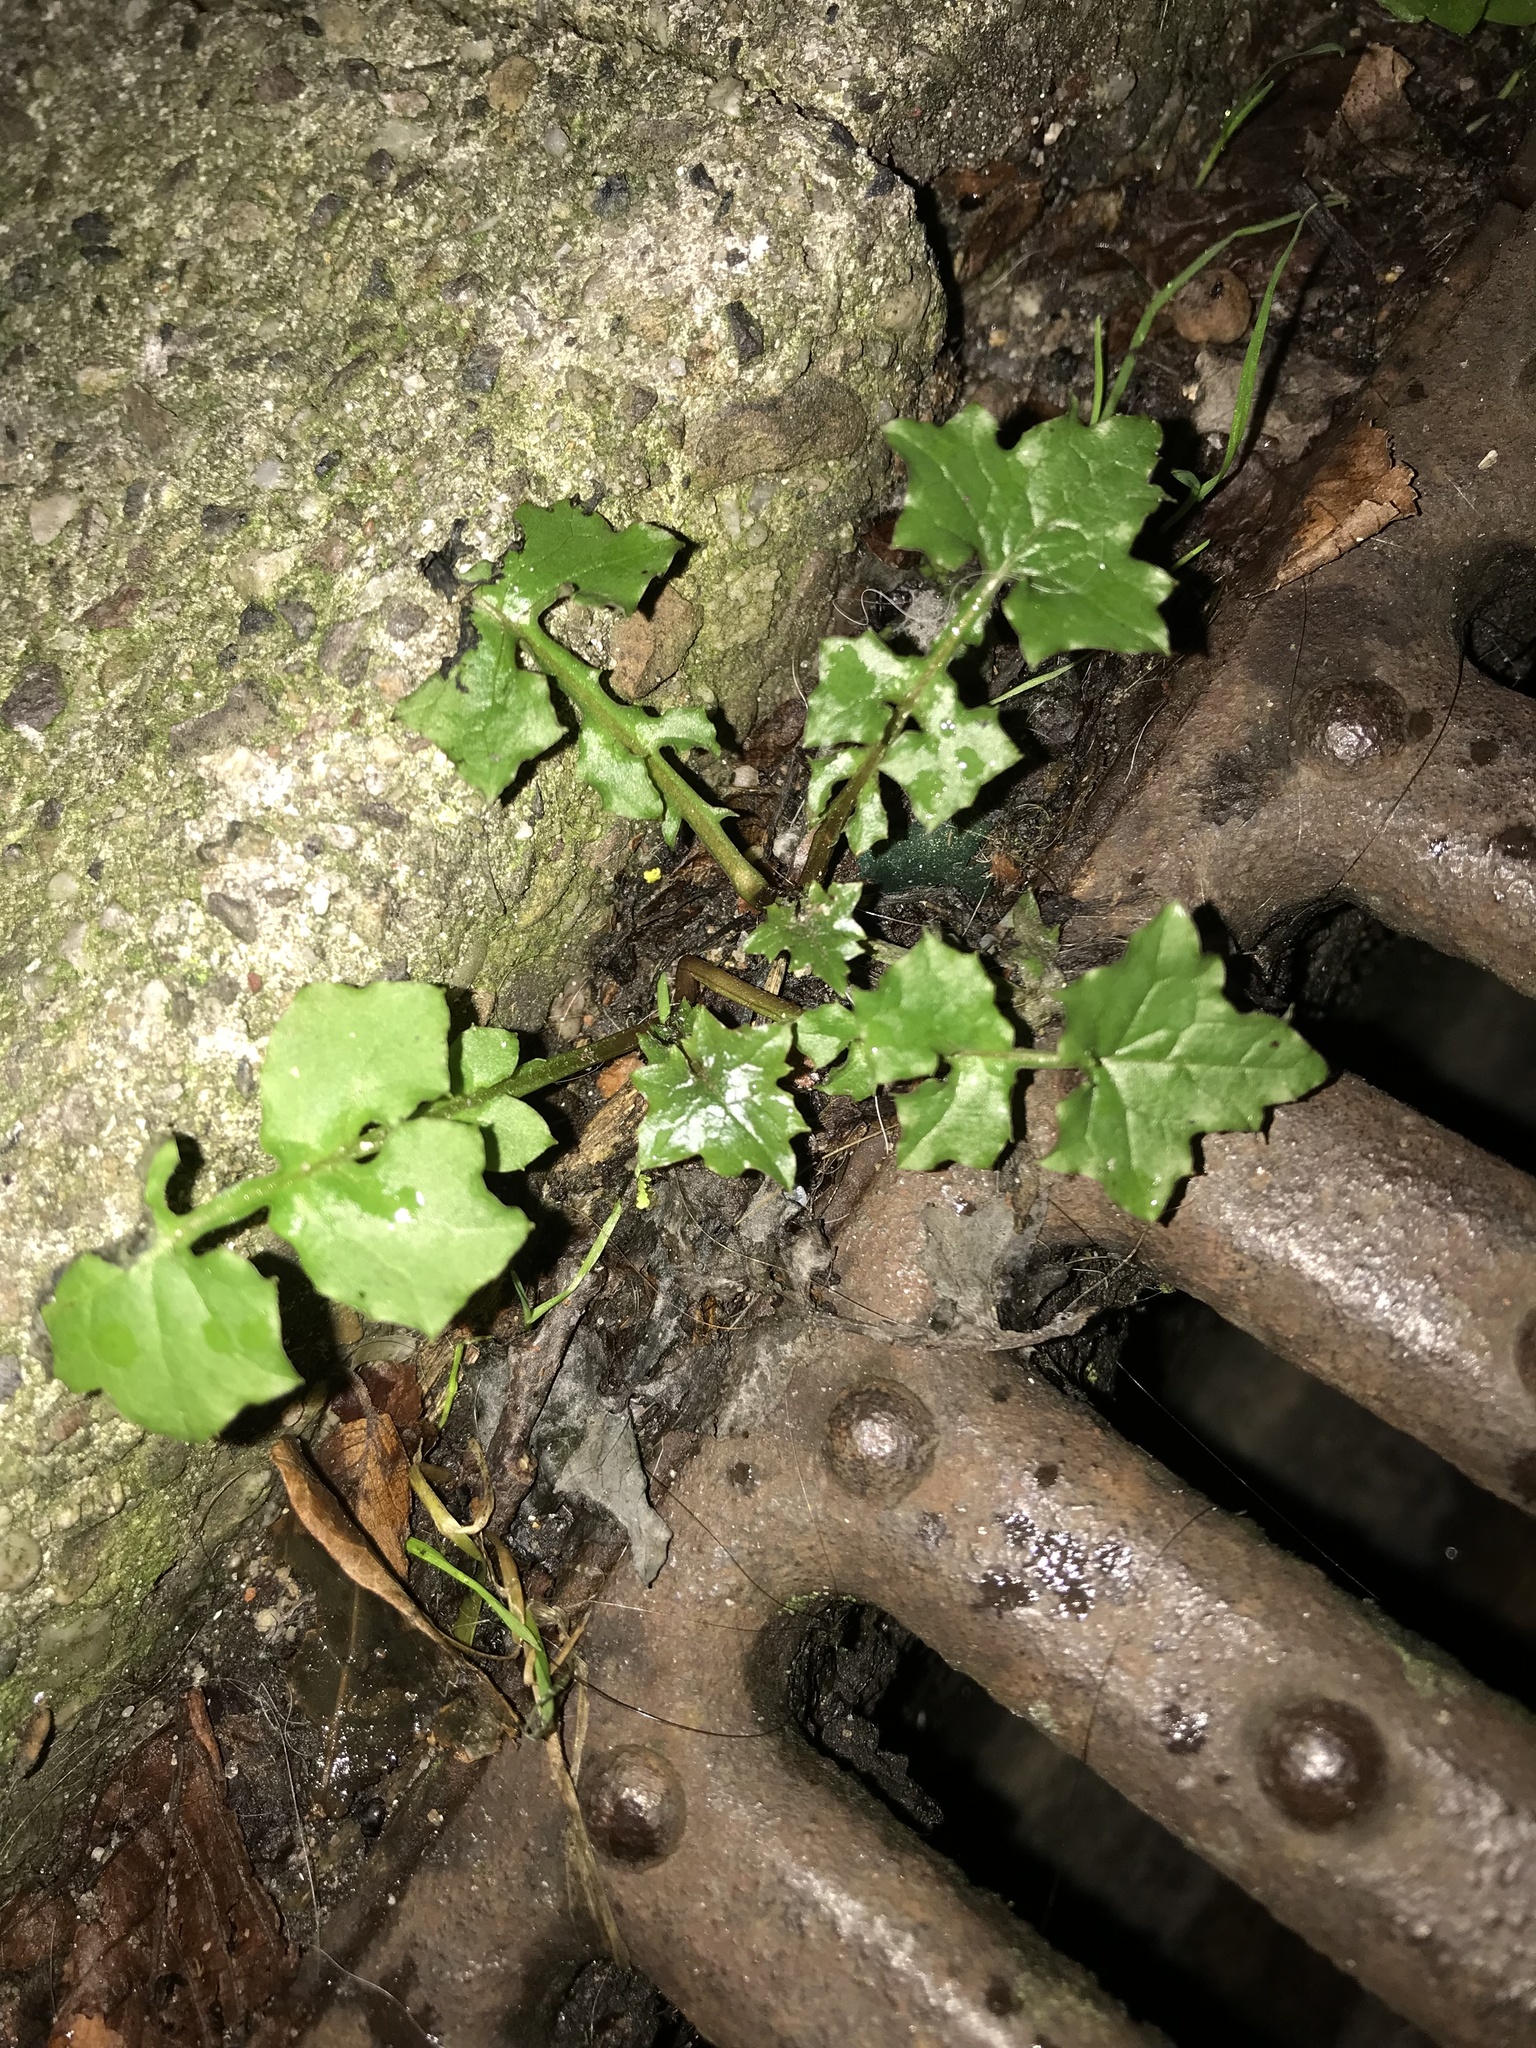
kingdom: Plantae
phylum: Tracheophyta
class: Magnoliopsida
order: Asterales
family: Asteraceae
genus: Mycelis
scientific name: Mycelis muralis
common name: Wall lettuce
